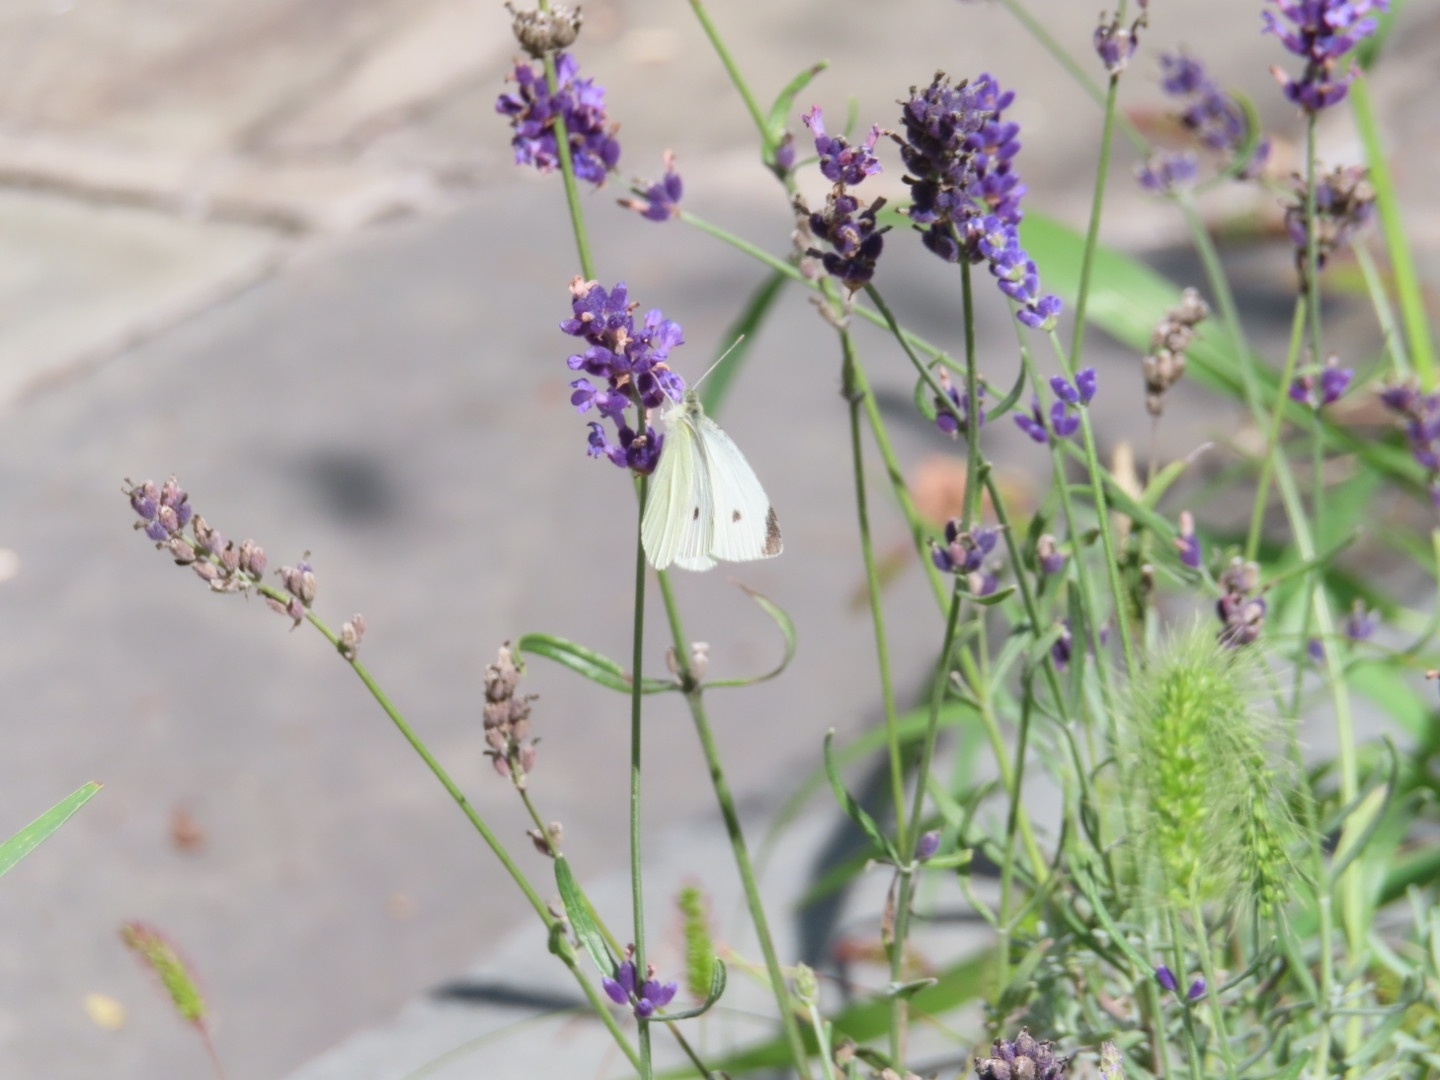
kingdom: Animalia
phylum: Arthropoda
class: Insecta
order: Lepidoptera
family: Pieridae
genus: Pieris
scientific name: Pieris rapae
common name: Small white
